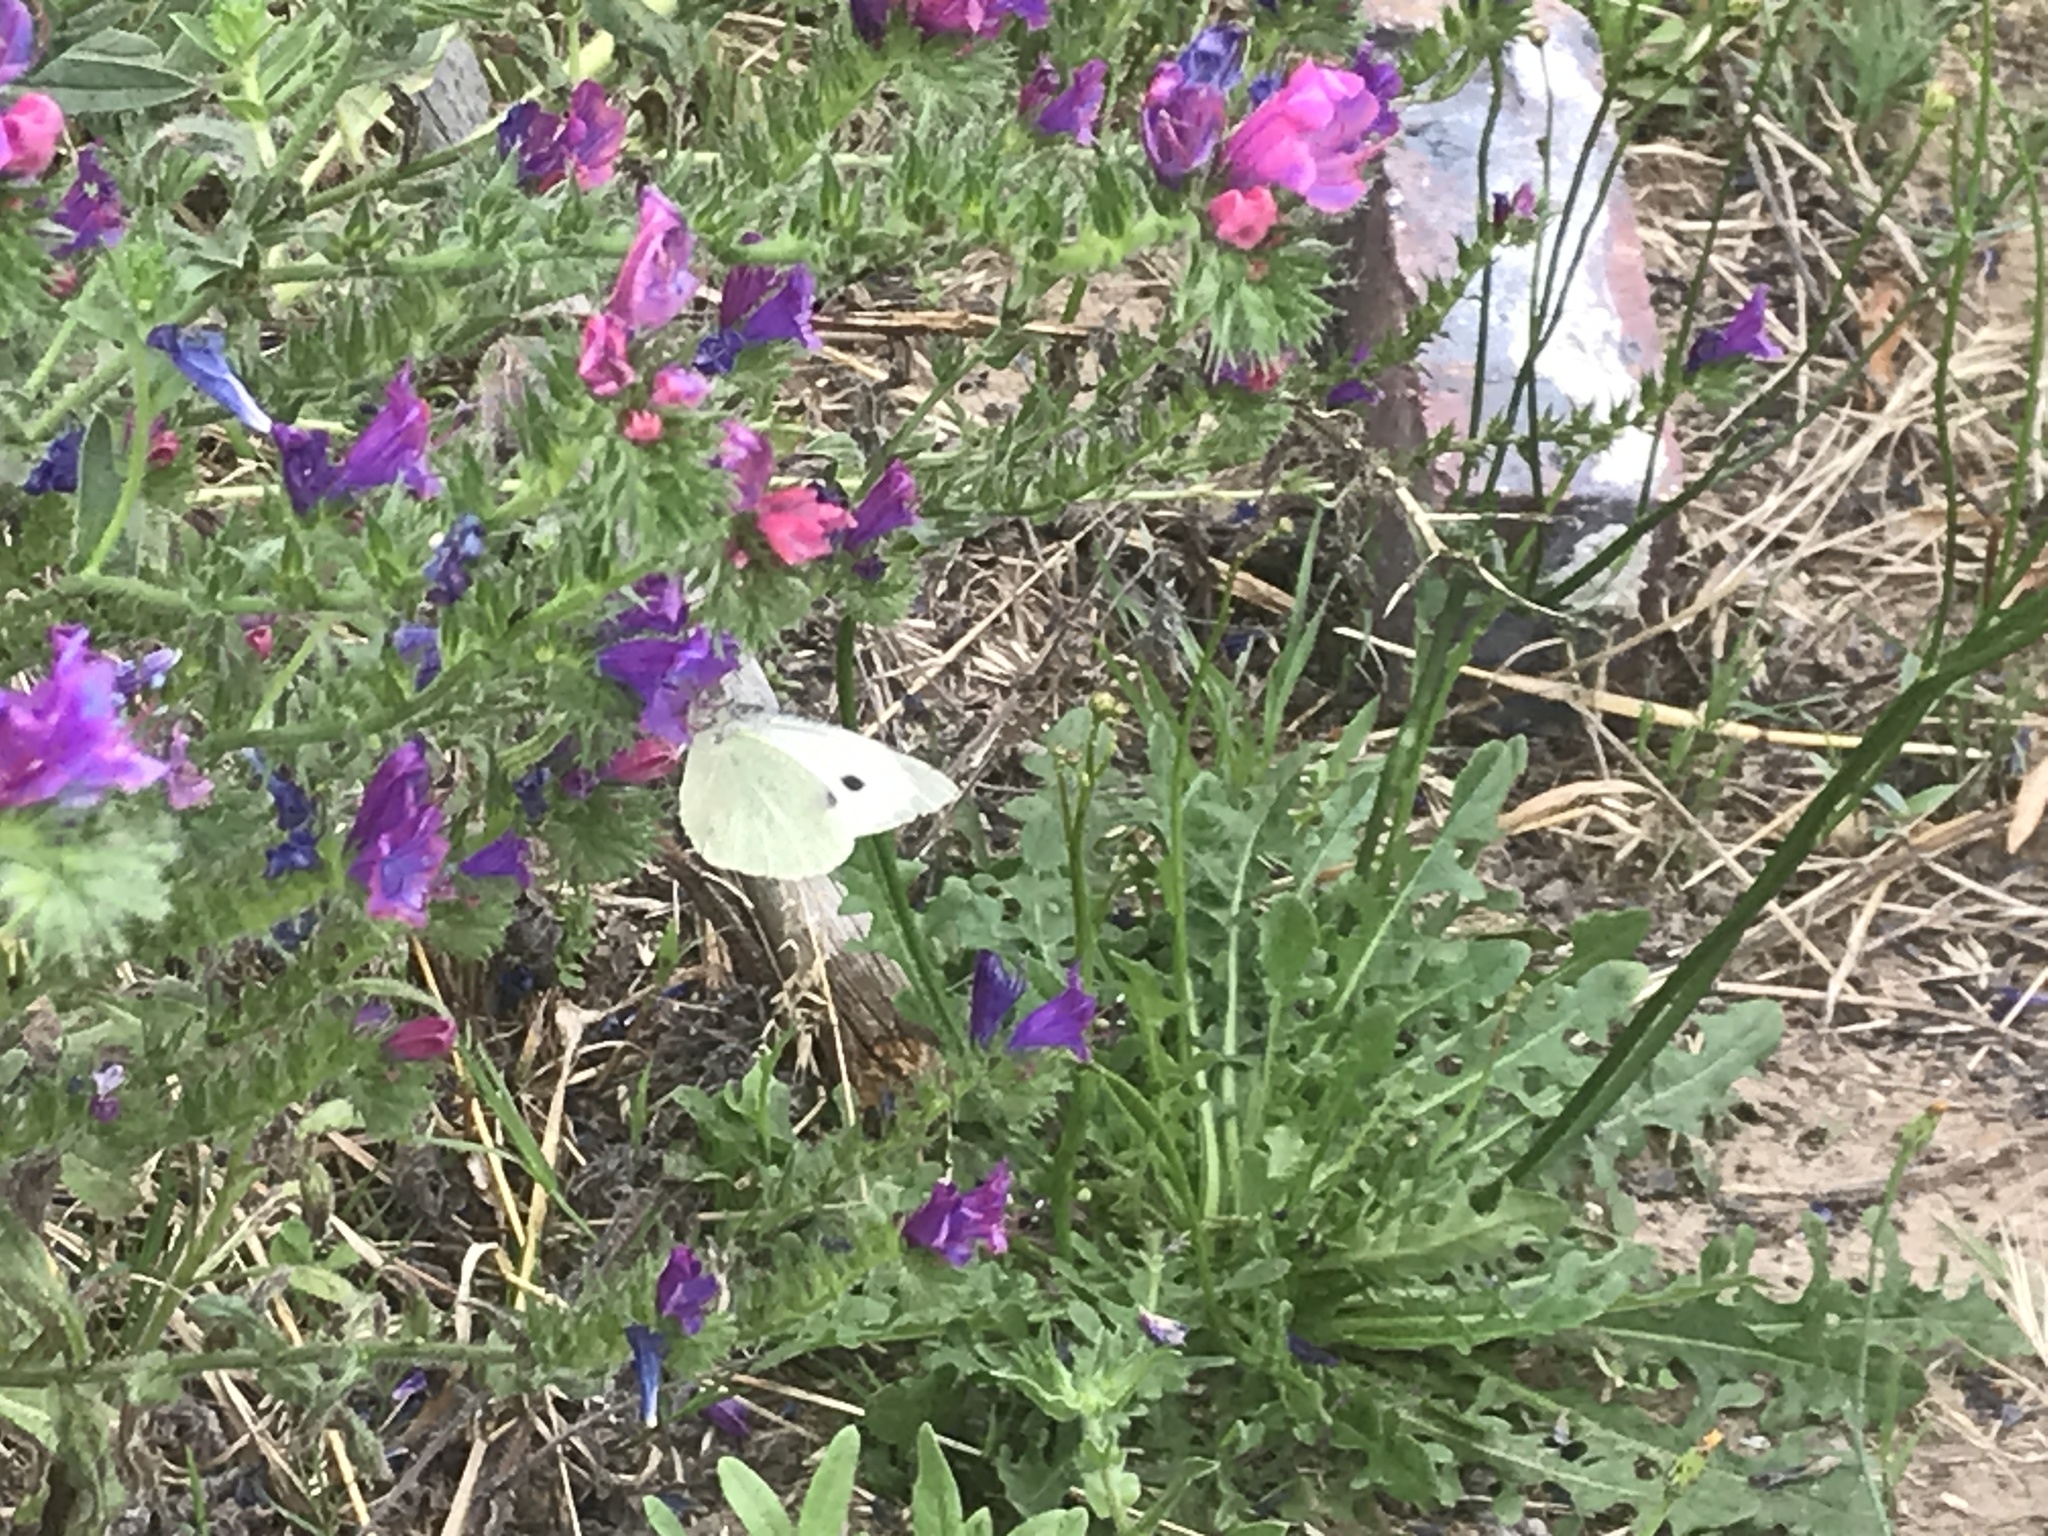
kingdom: Animalia
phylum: Arthropoda
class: Insecta
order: Lepidoptera
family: Pieridae
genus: Pieris
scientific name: Pieris brassicae
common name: Large white
